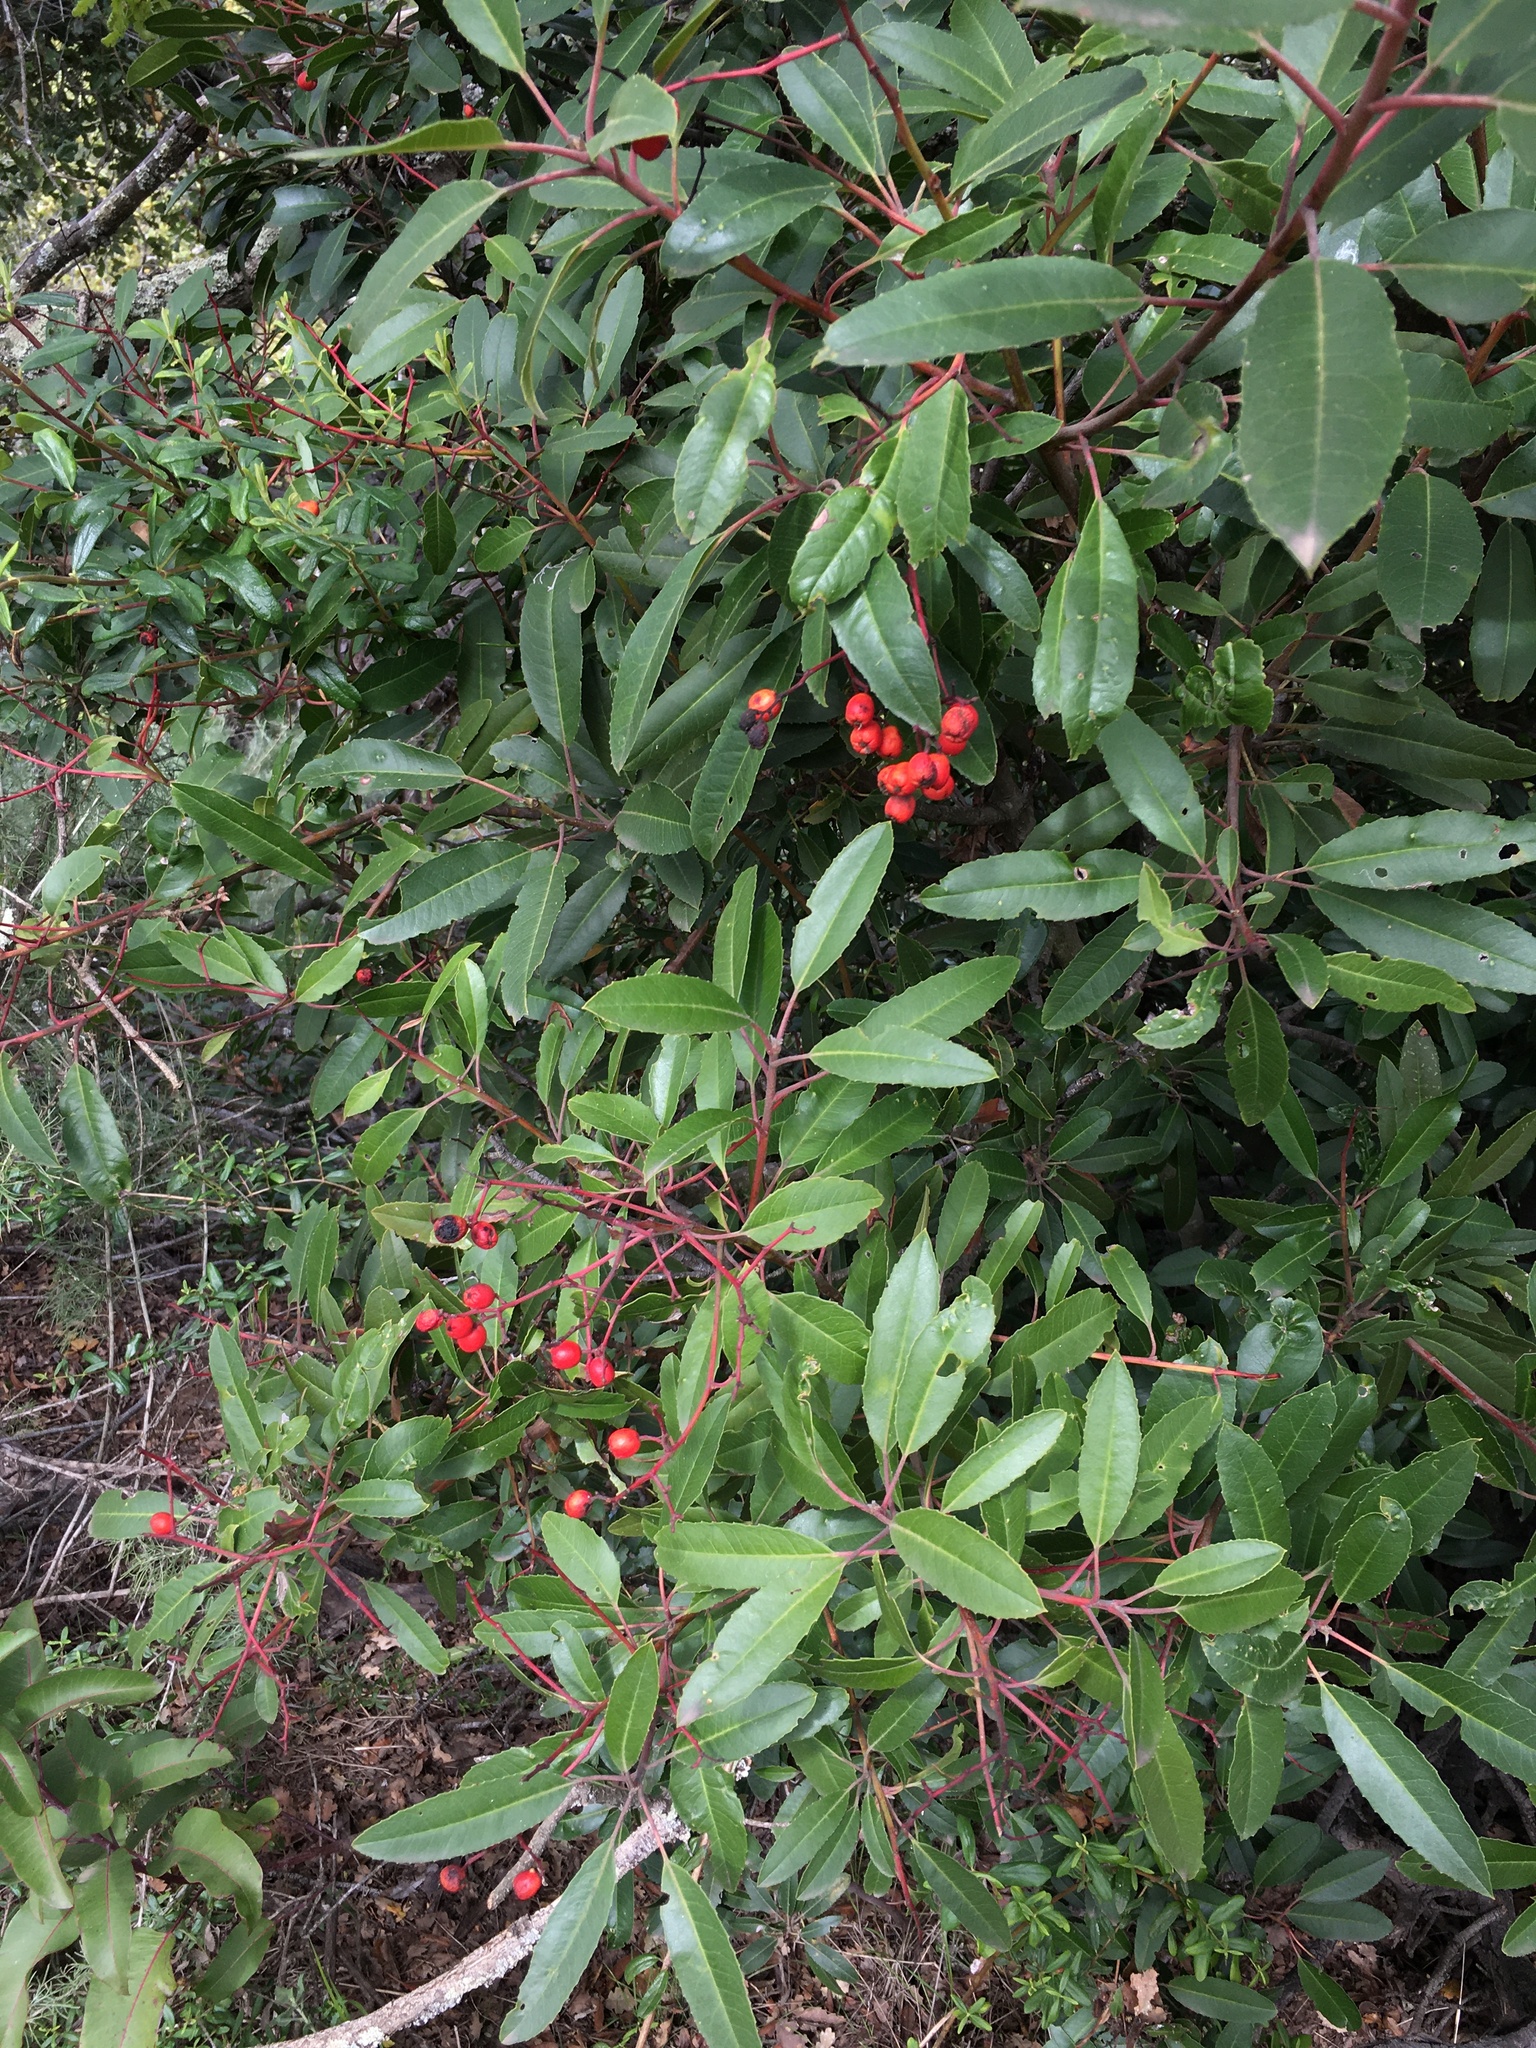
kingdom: Plantae
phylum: Tracheophyta
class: Magnoliopsida
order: Rosales
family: Rosaceae
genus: Heteromeles
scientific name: Heteromeles arbutifolia
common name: California-holly
